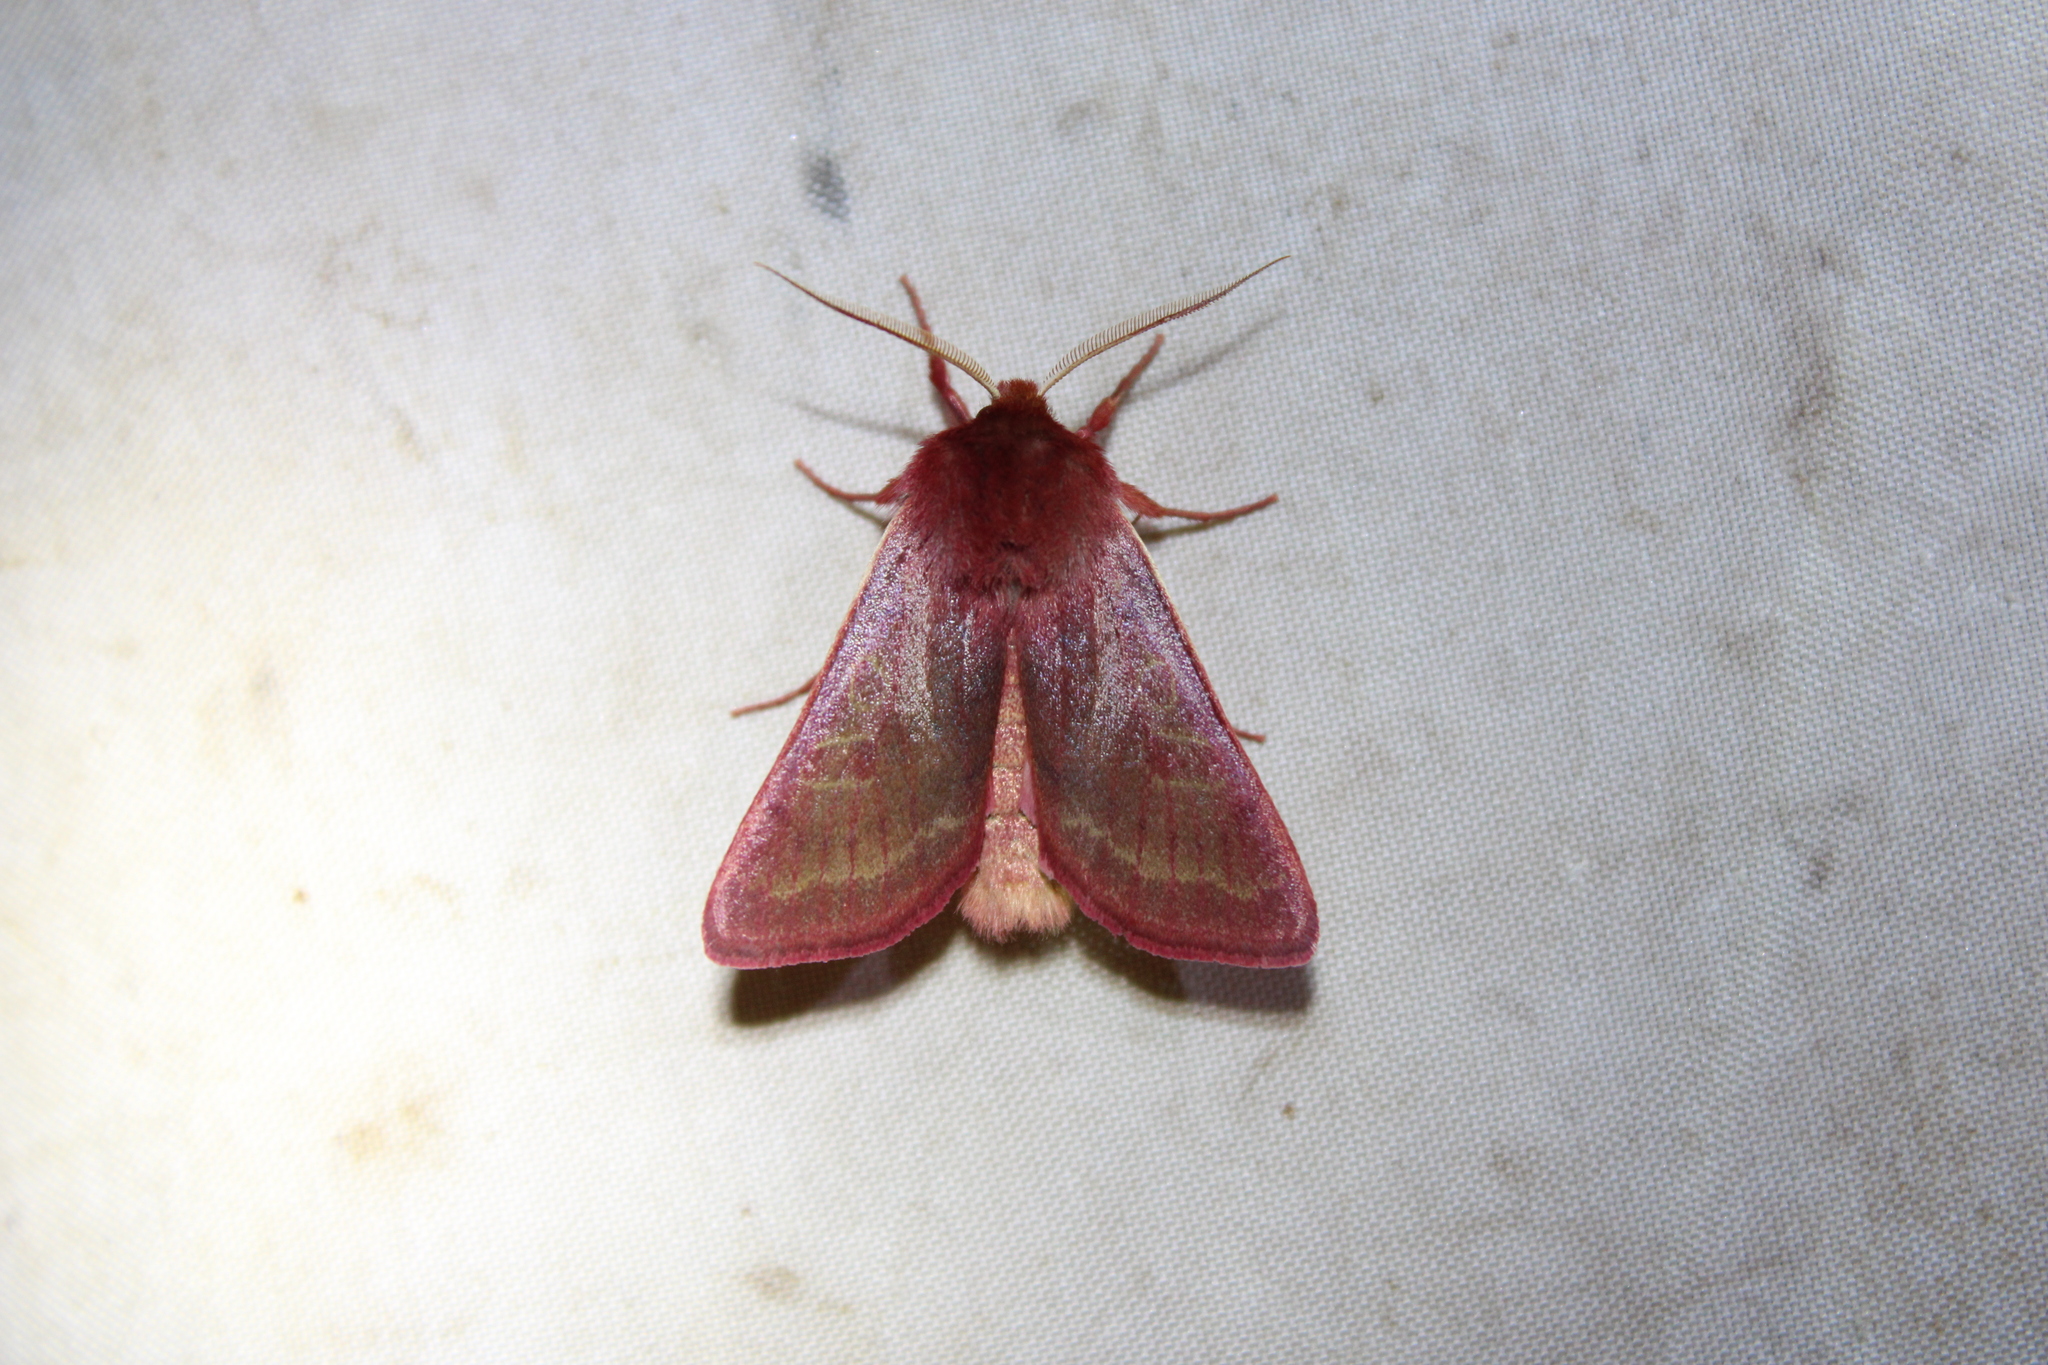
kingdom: Animalia
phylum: Arthropoda
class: Insecta
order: Lepidoptera
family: Noctuidae
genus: Psectraglaea
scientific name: Psectraglaea carnosa
